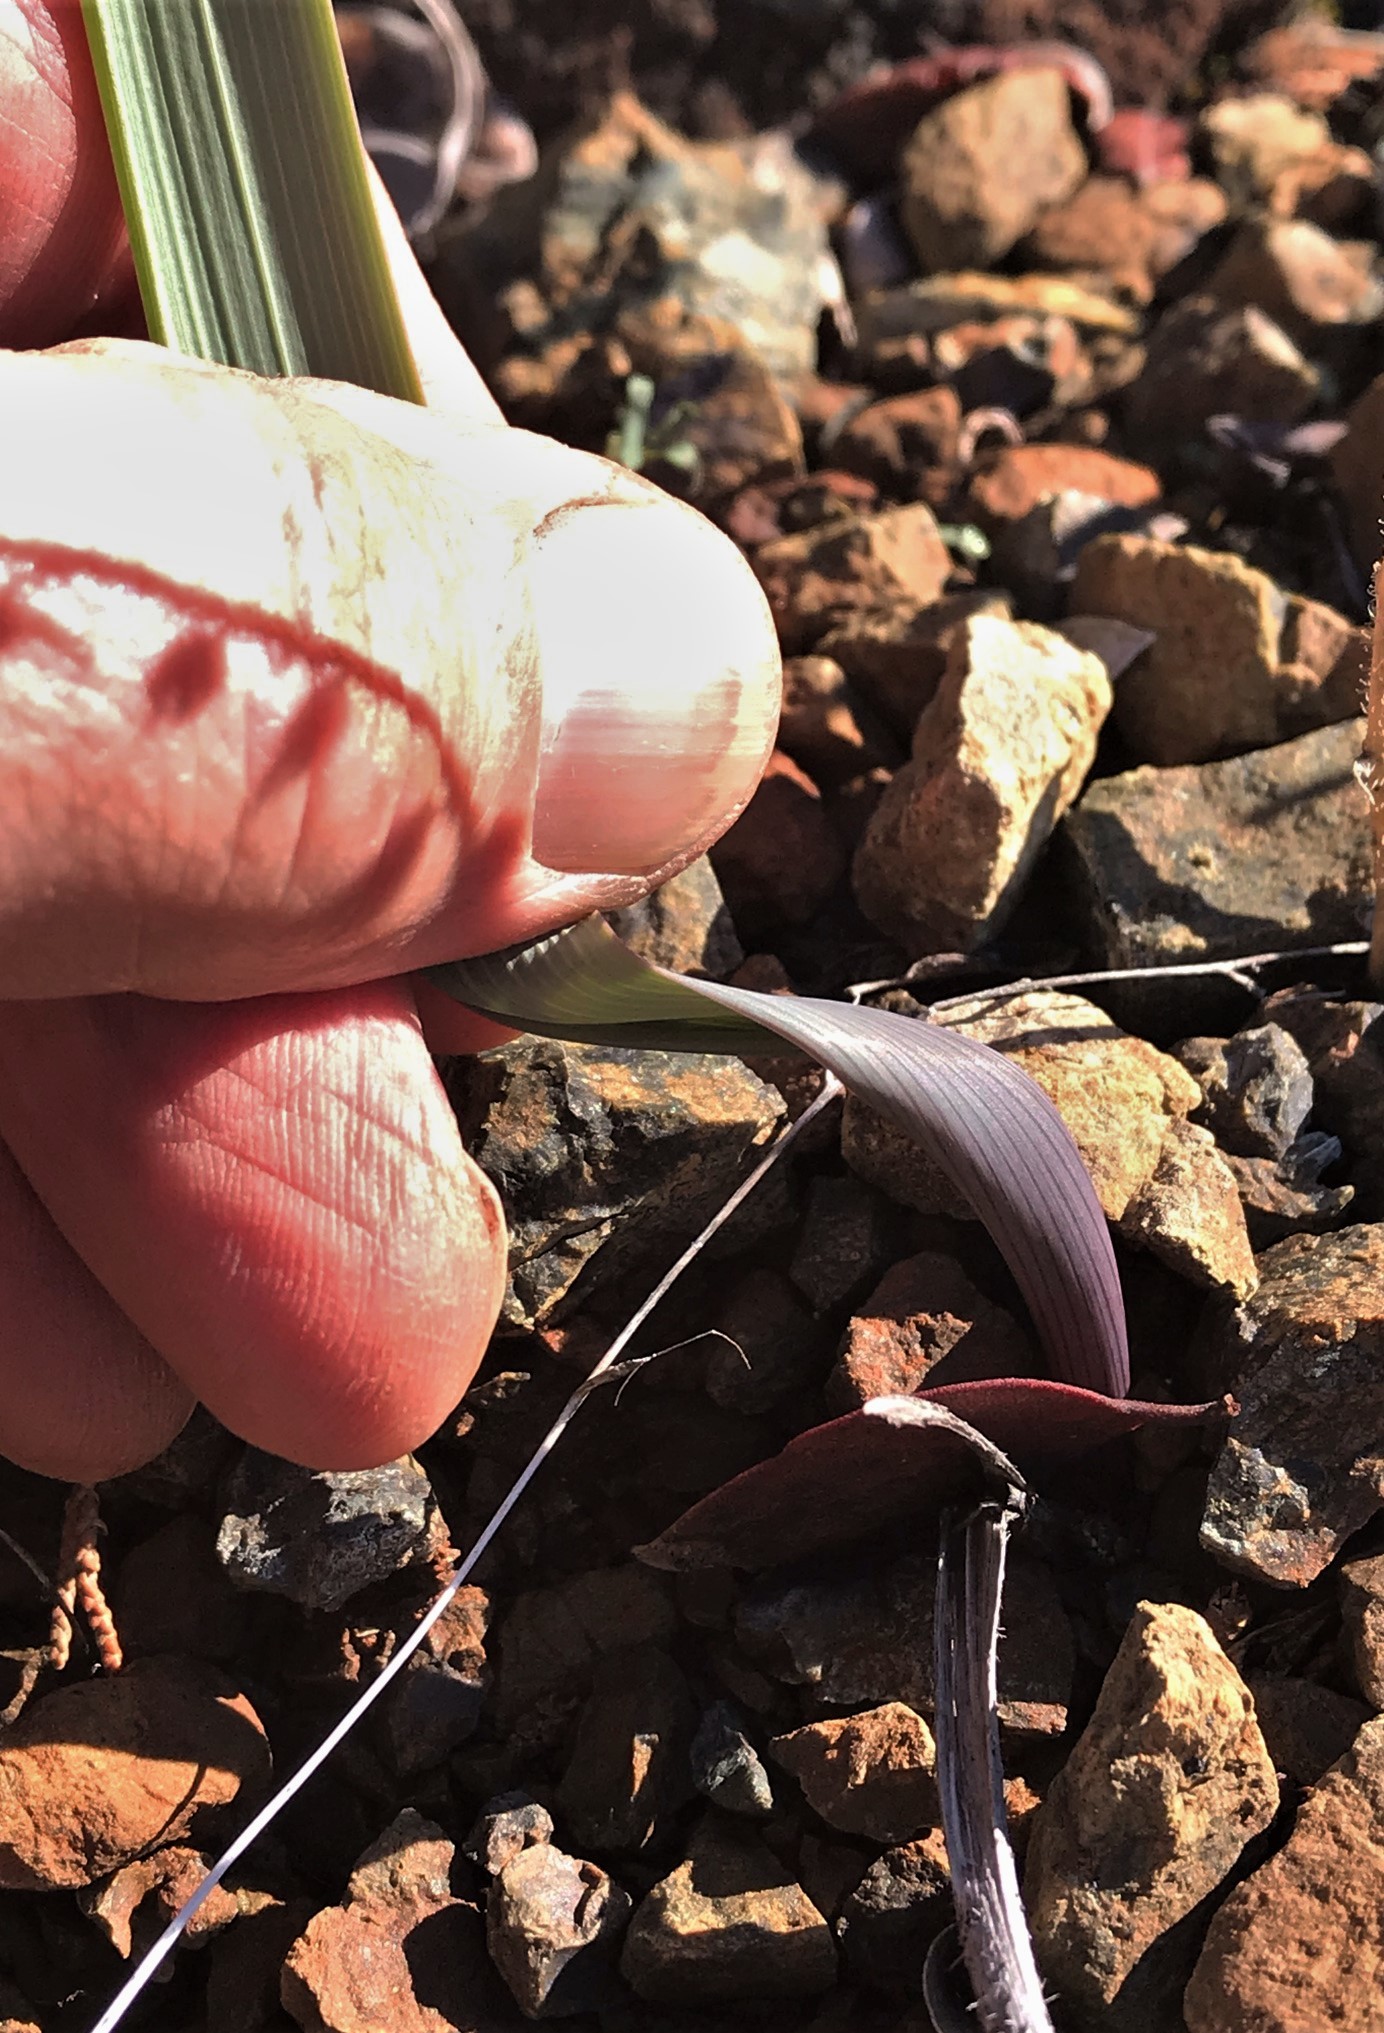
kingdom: Plantae
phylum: Tracheophyta
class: Liliopsida
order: Liliales
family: Liliaceae
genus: Calochortus
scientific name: Calochortus raichei
